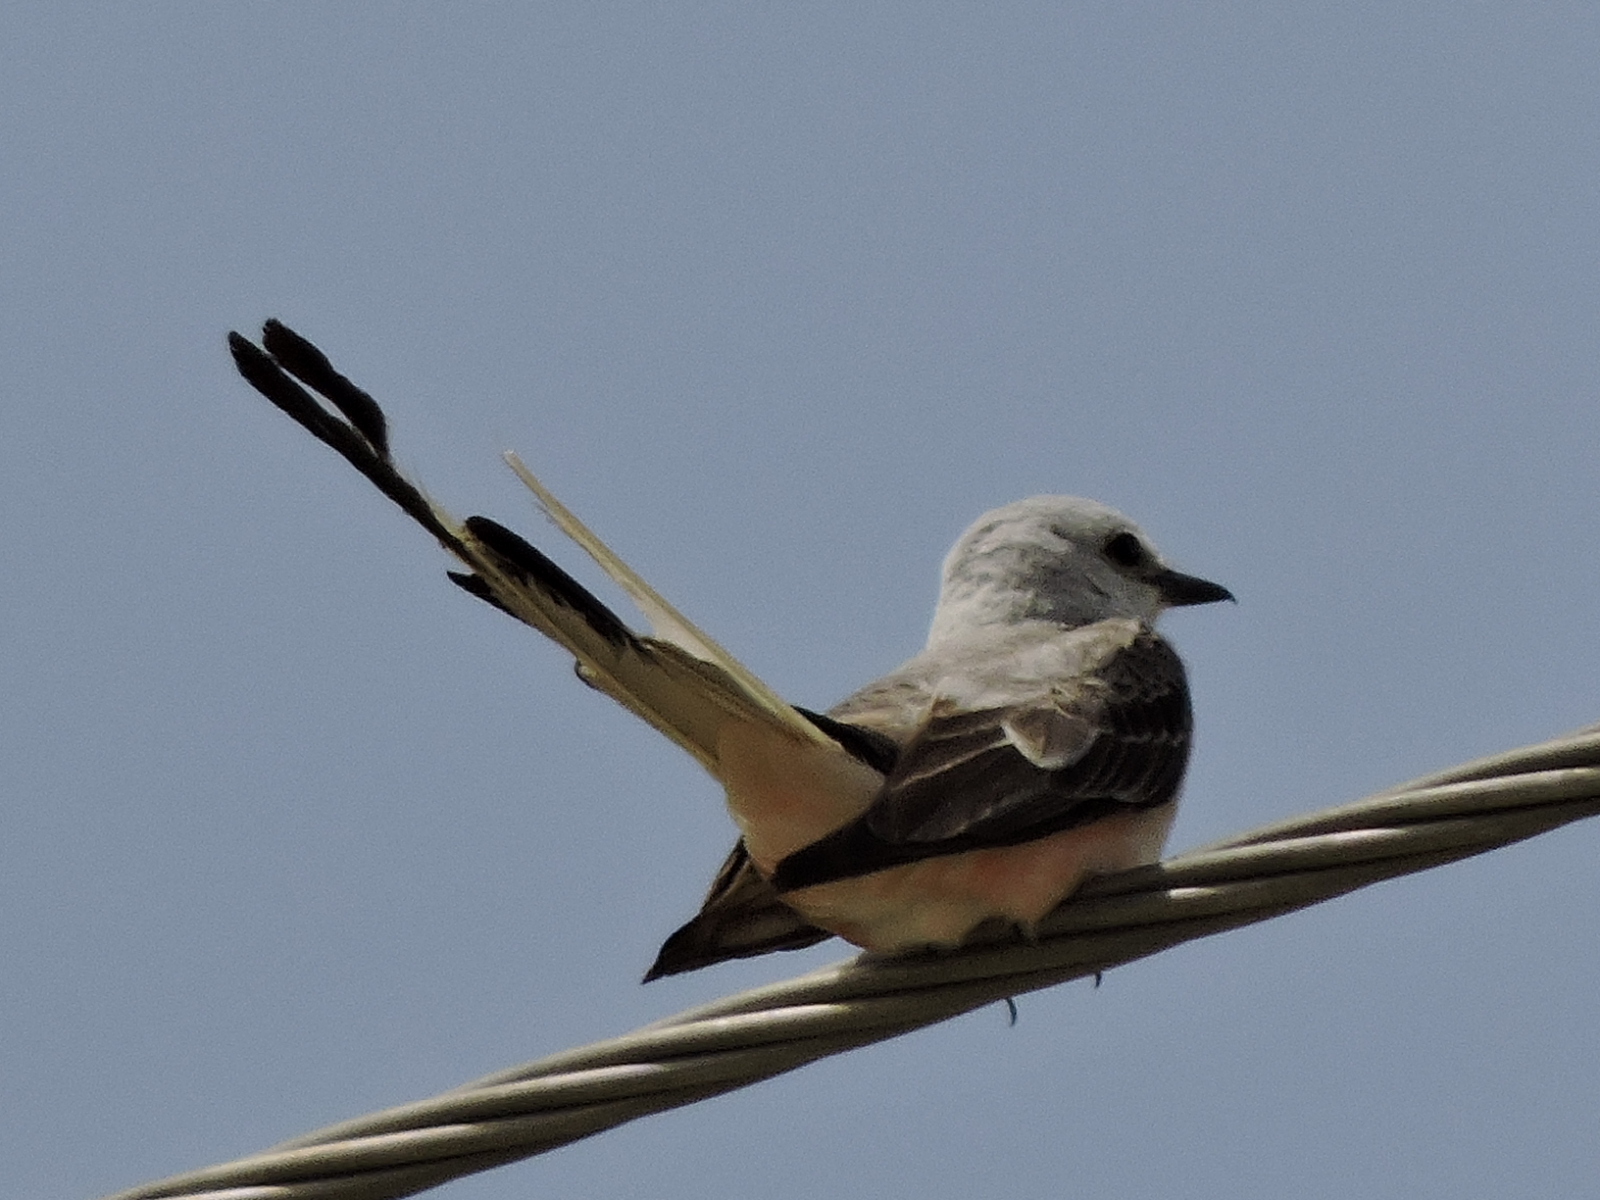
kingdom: Animalia
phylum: Chordata
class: Aves
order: Passeriformes
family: Tyrannidae
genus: Tyrannus
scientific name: Tyrannus forficatus
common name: Scissor-tailed flycatcher
